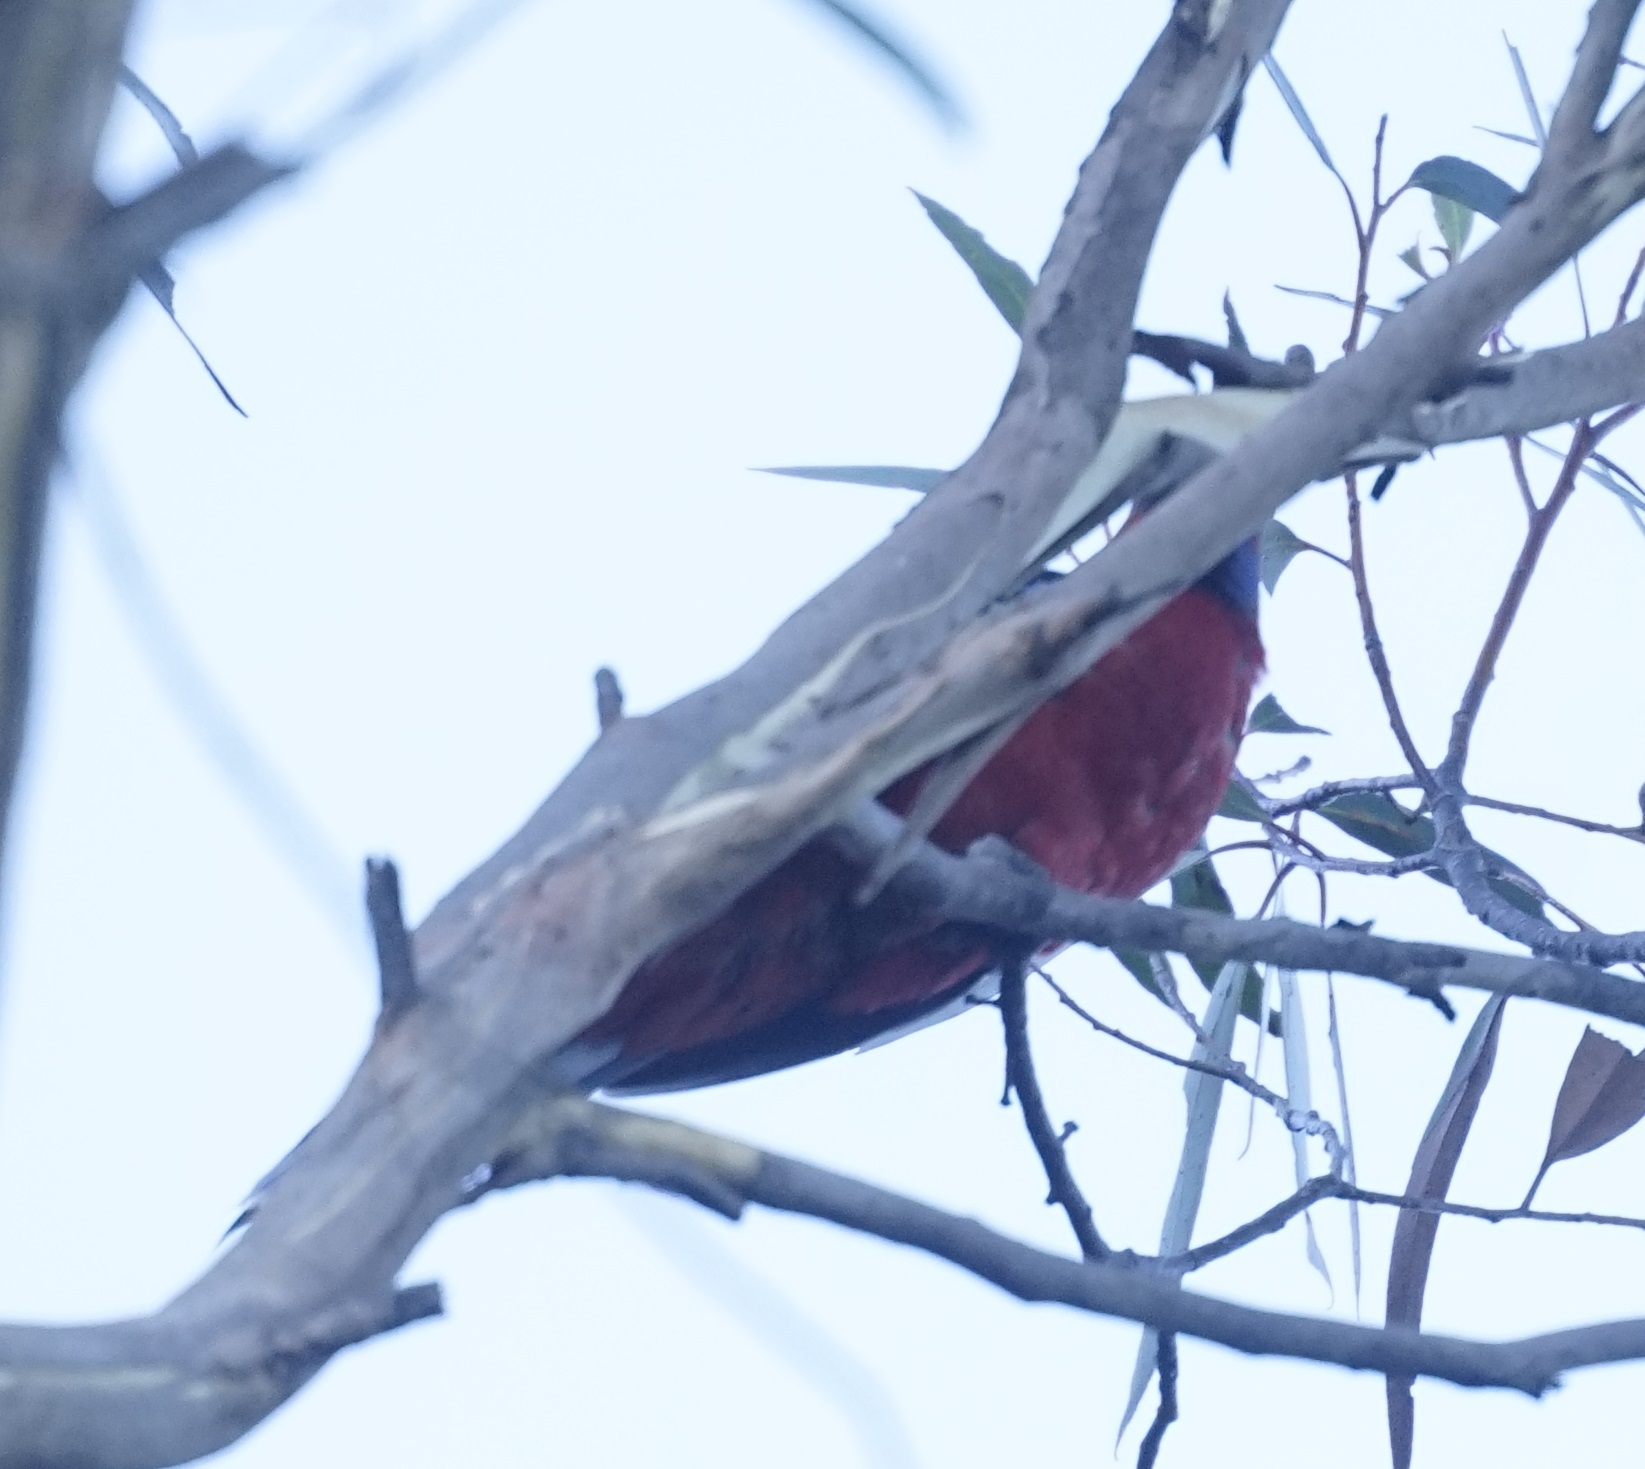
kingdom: Animalia
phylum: Chordata
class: Aves
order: Psittaciformes
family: Psittacidae
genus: Platycercus
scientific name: Platycercus elegans
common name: Crimson rosella
